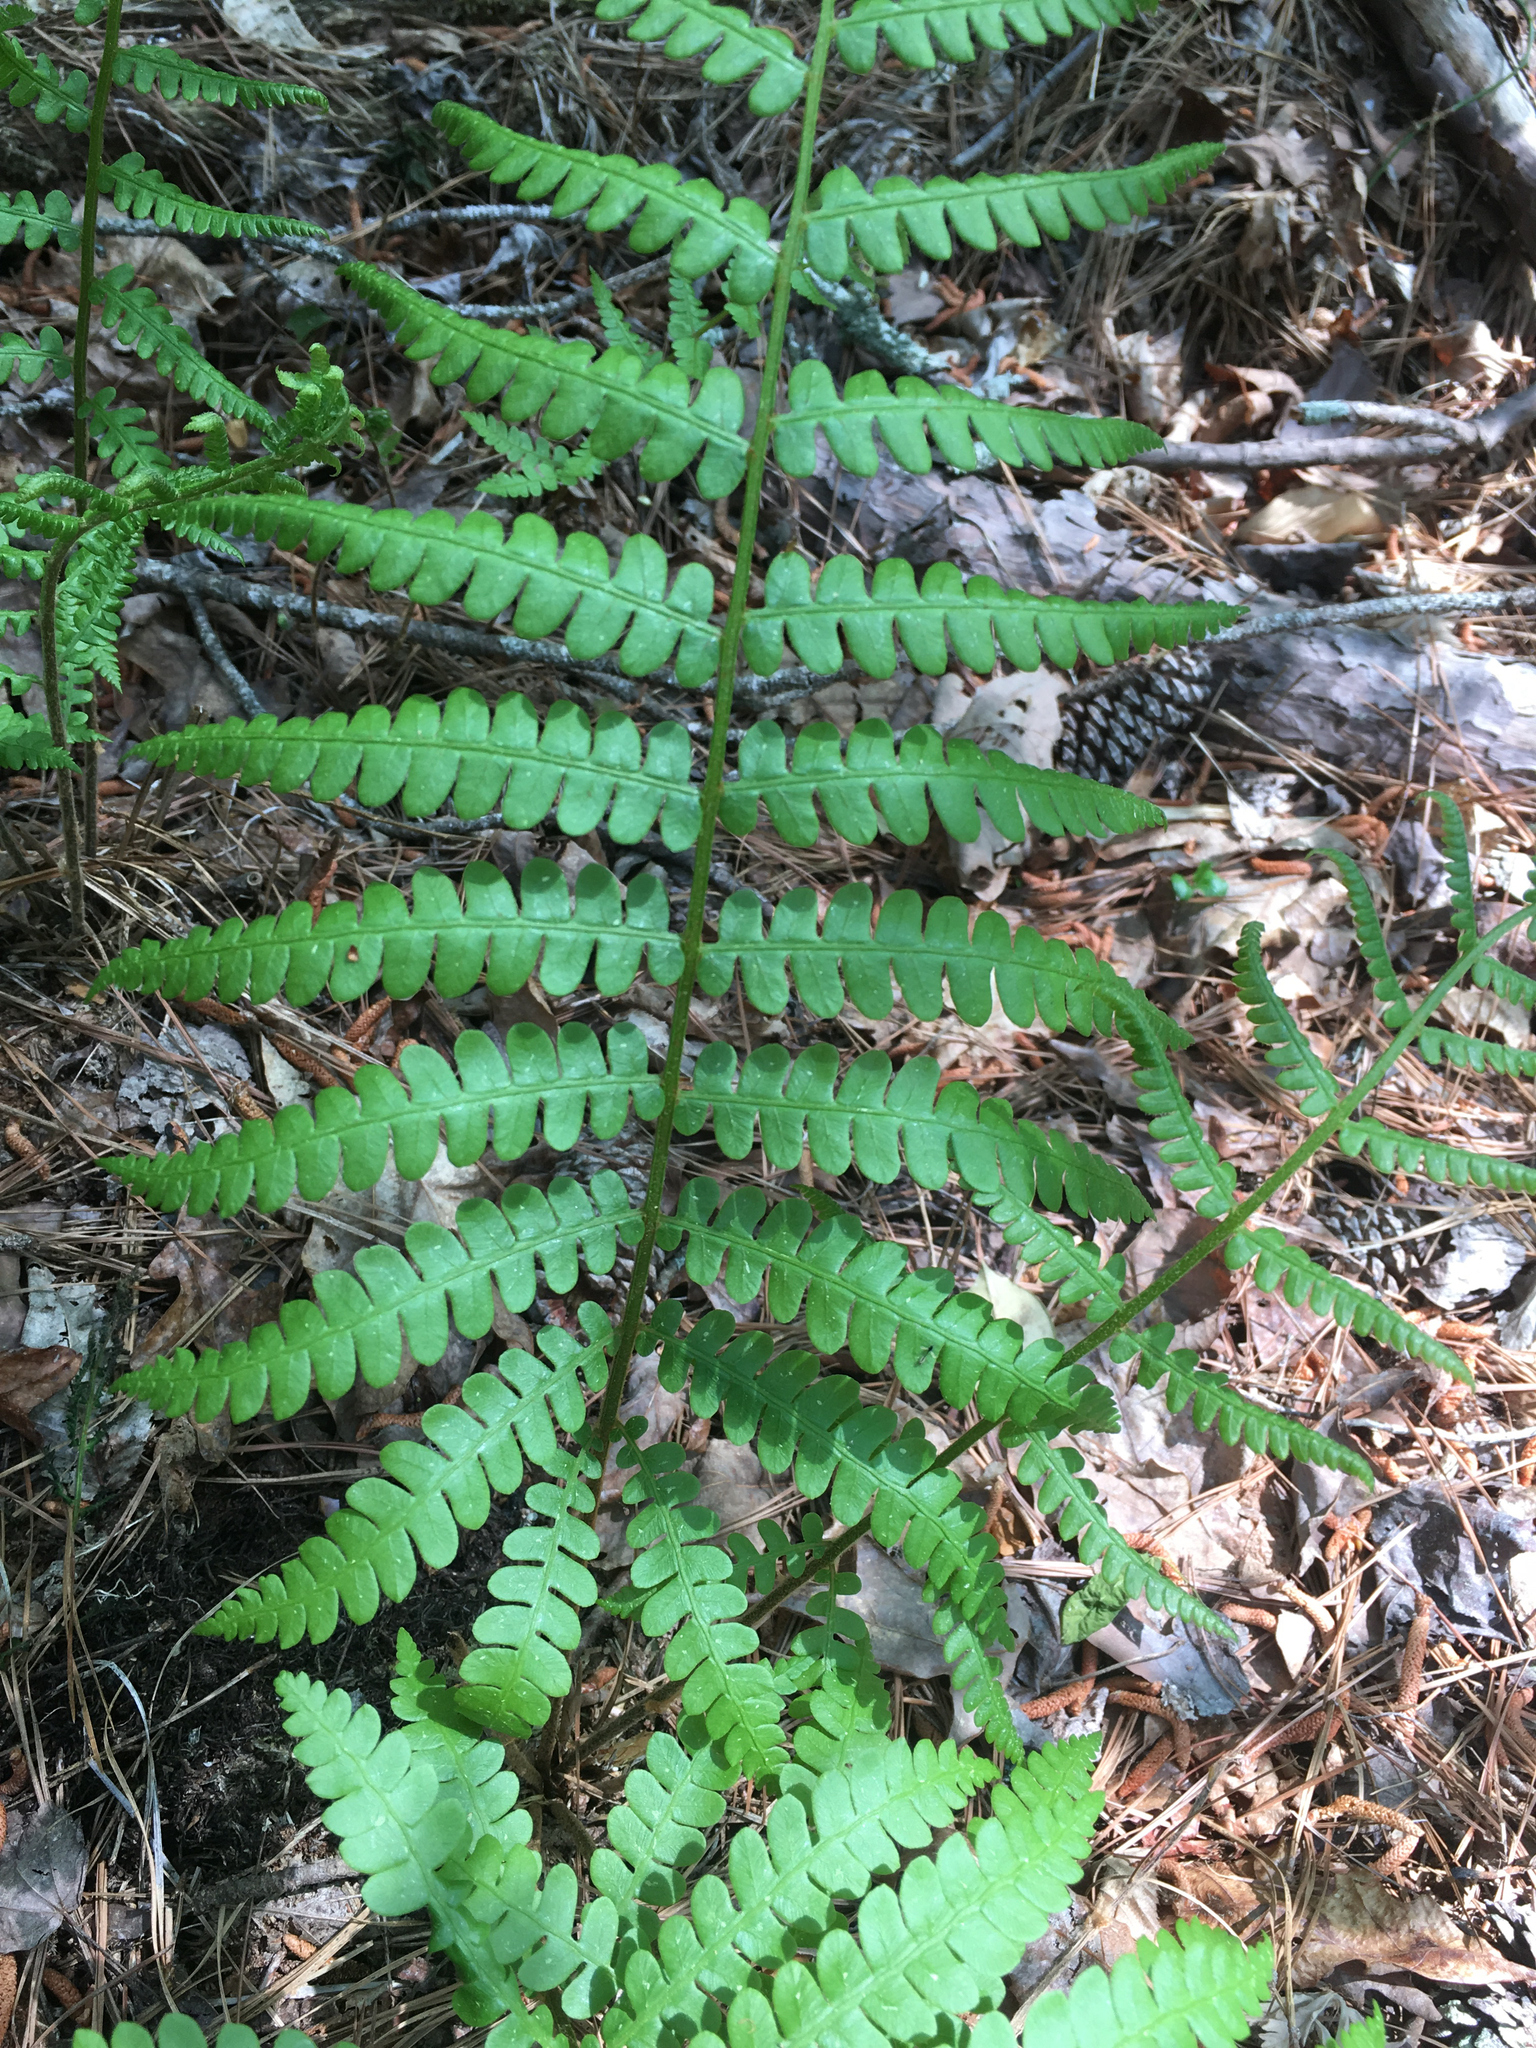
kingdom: Plantae
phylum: Tracheophyta
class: Polypodiopsida
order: Osmundales
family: Osmundaceae
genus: Osmundastrum
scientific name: Osmundastrum cinnamomeum
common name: Cinnamon fern
